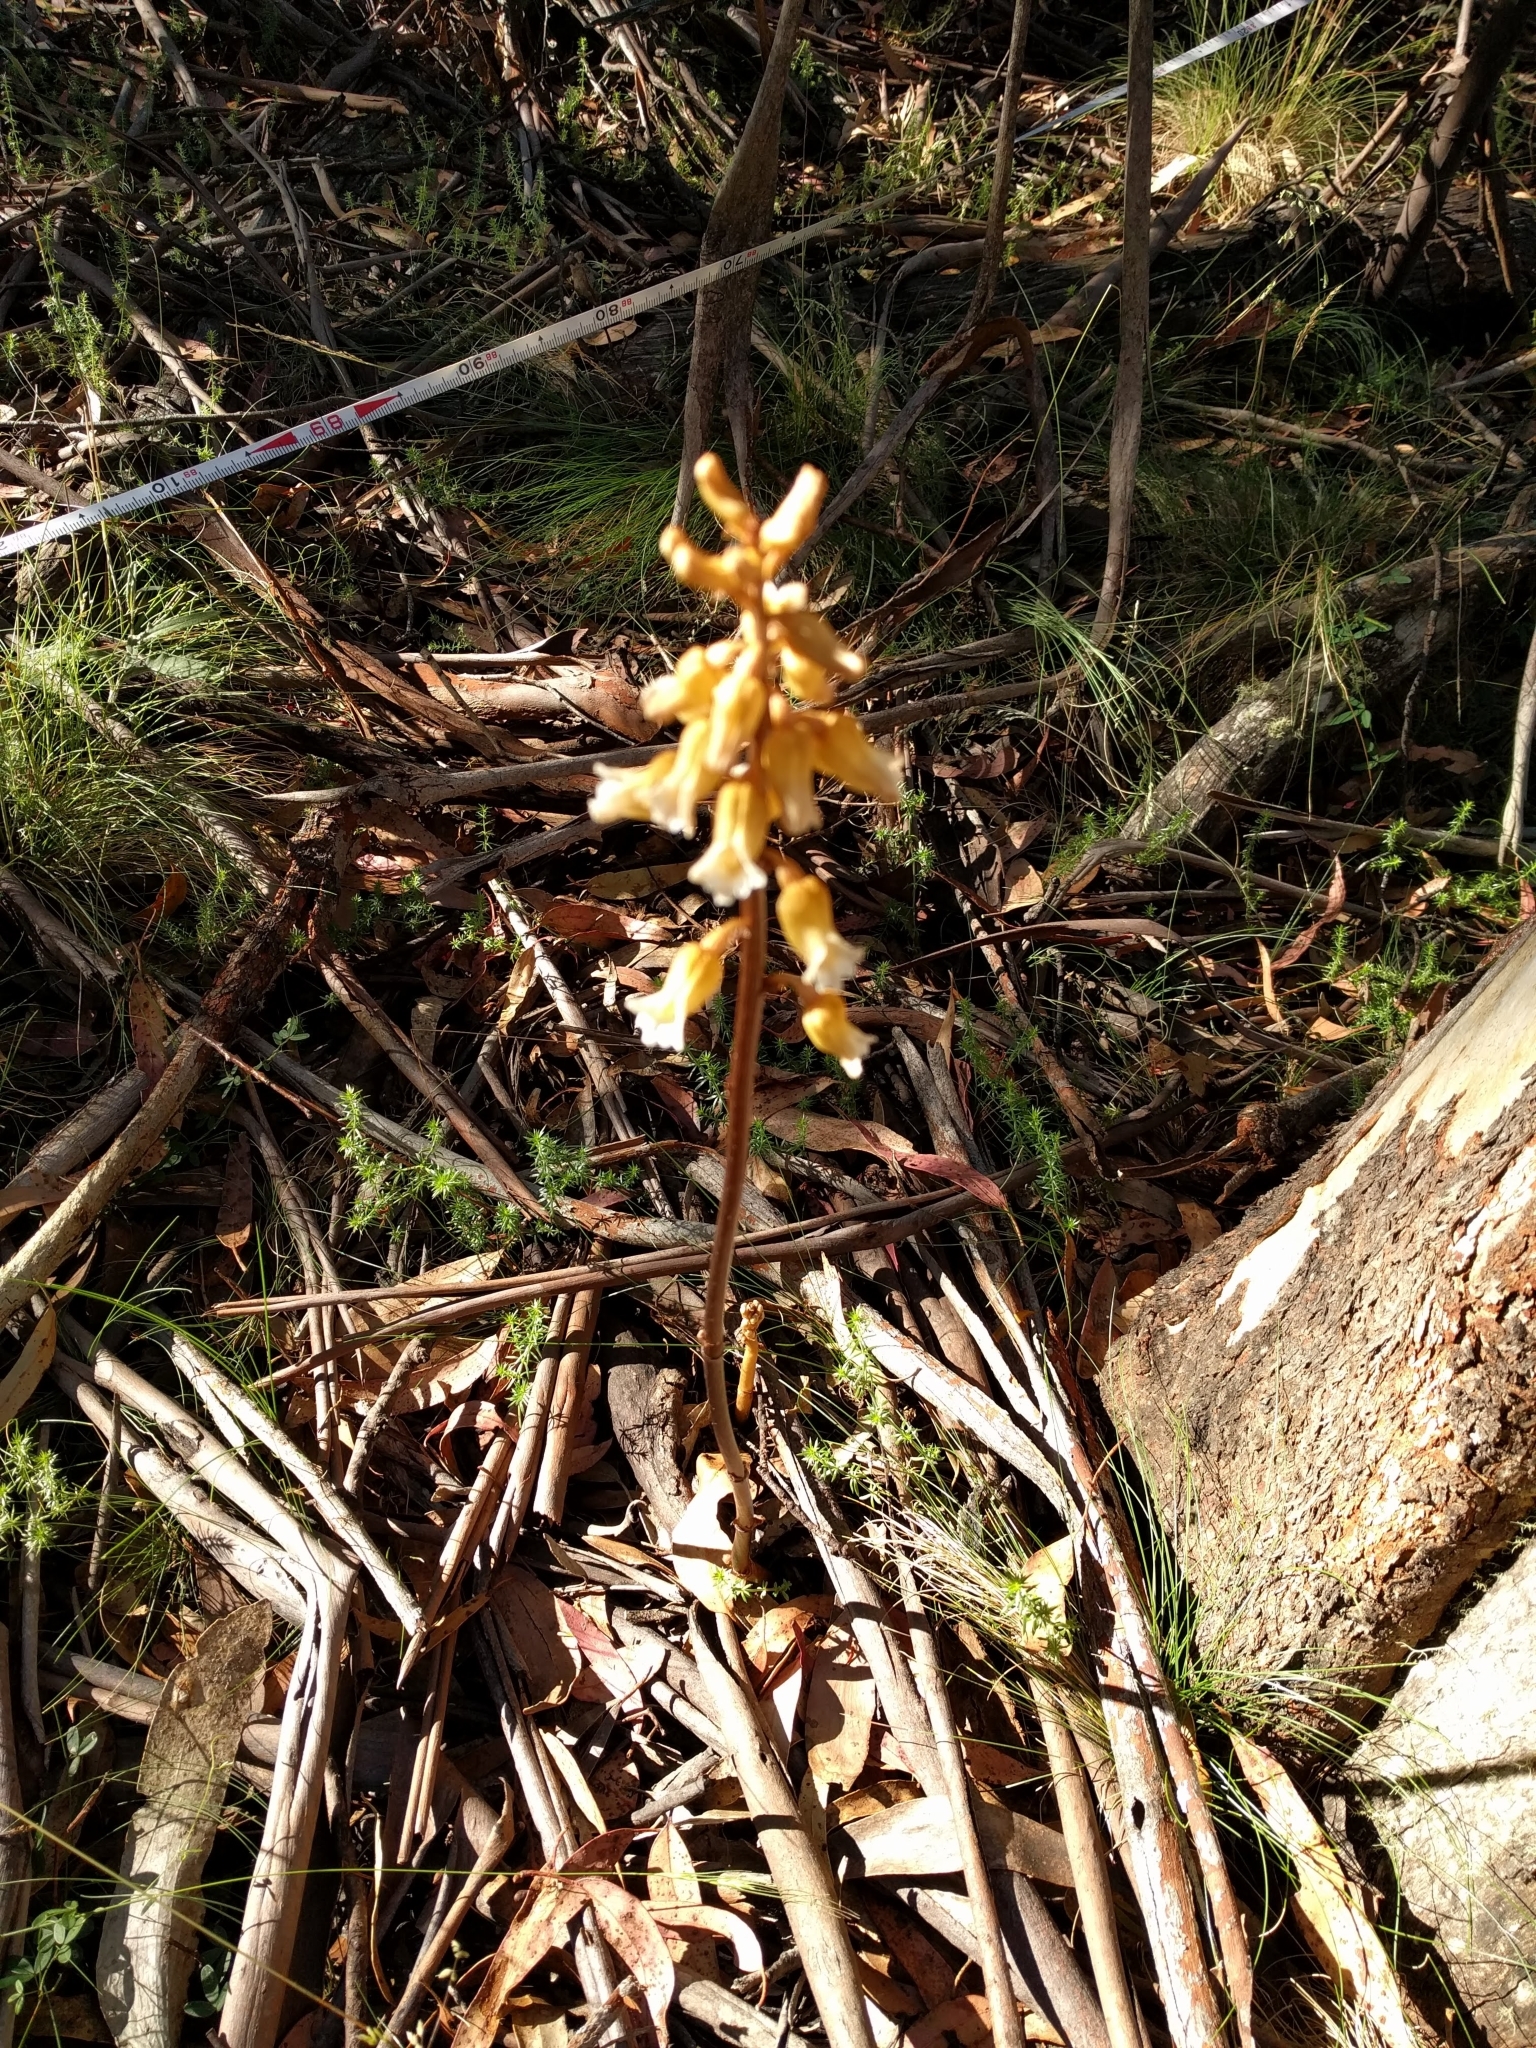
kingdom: Plantae
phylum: Tracheophyta
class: Liliopsida
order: Asparagales
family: Orchidaceae
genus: Gastrodia
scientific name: Gastrodia procera
